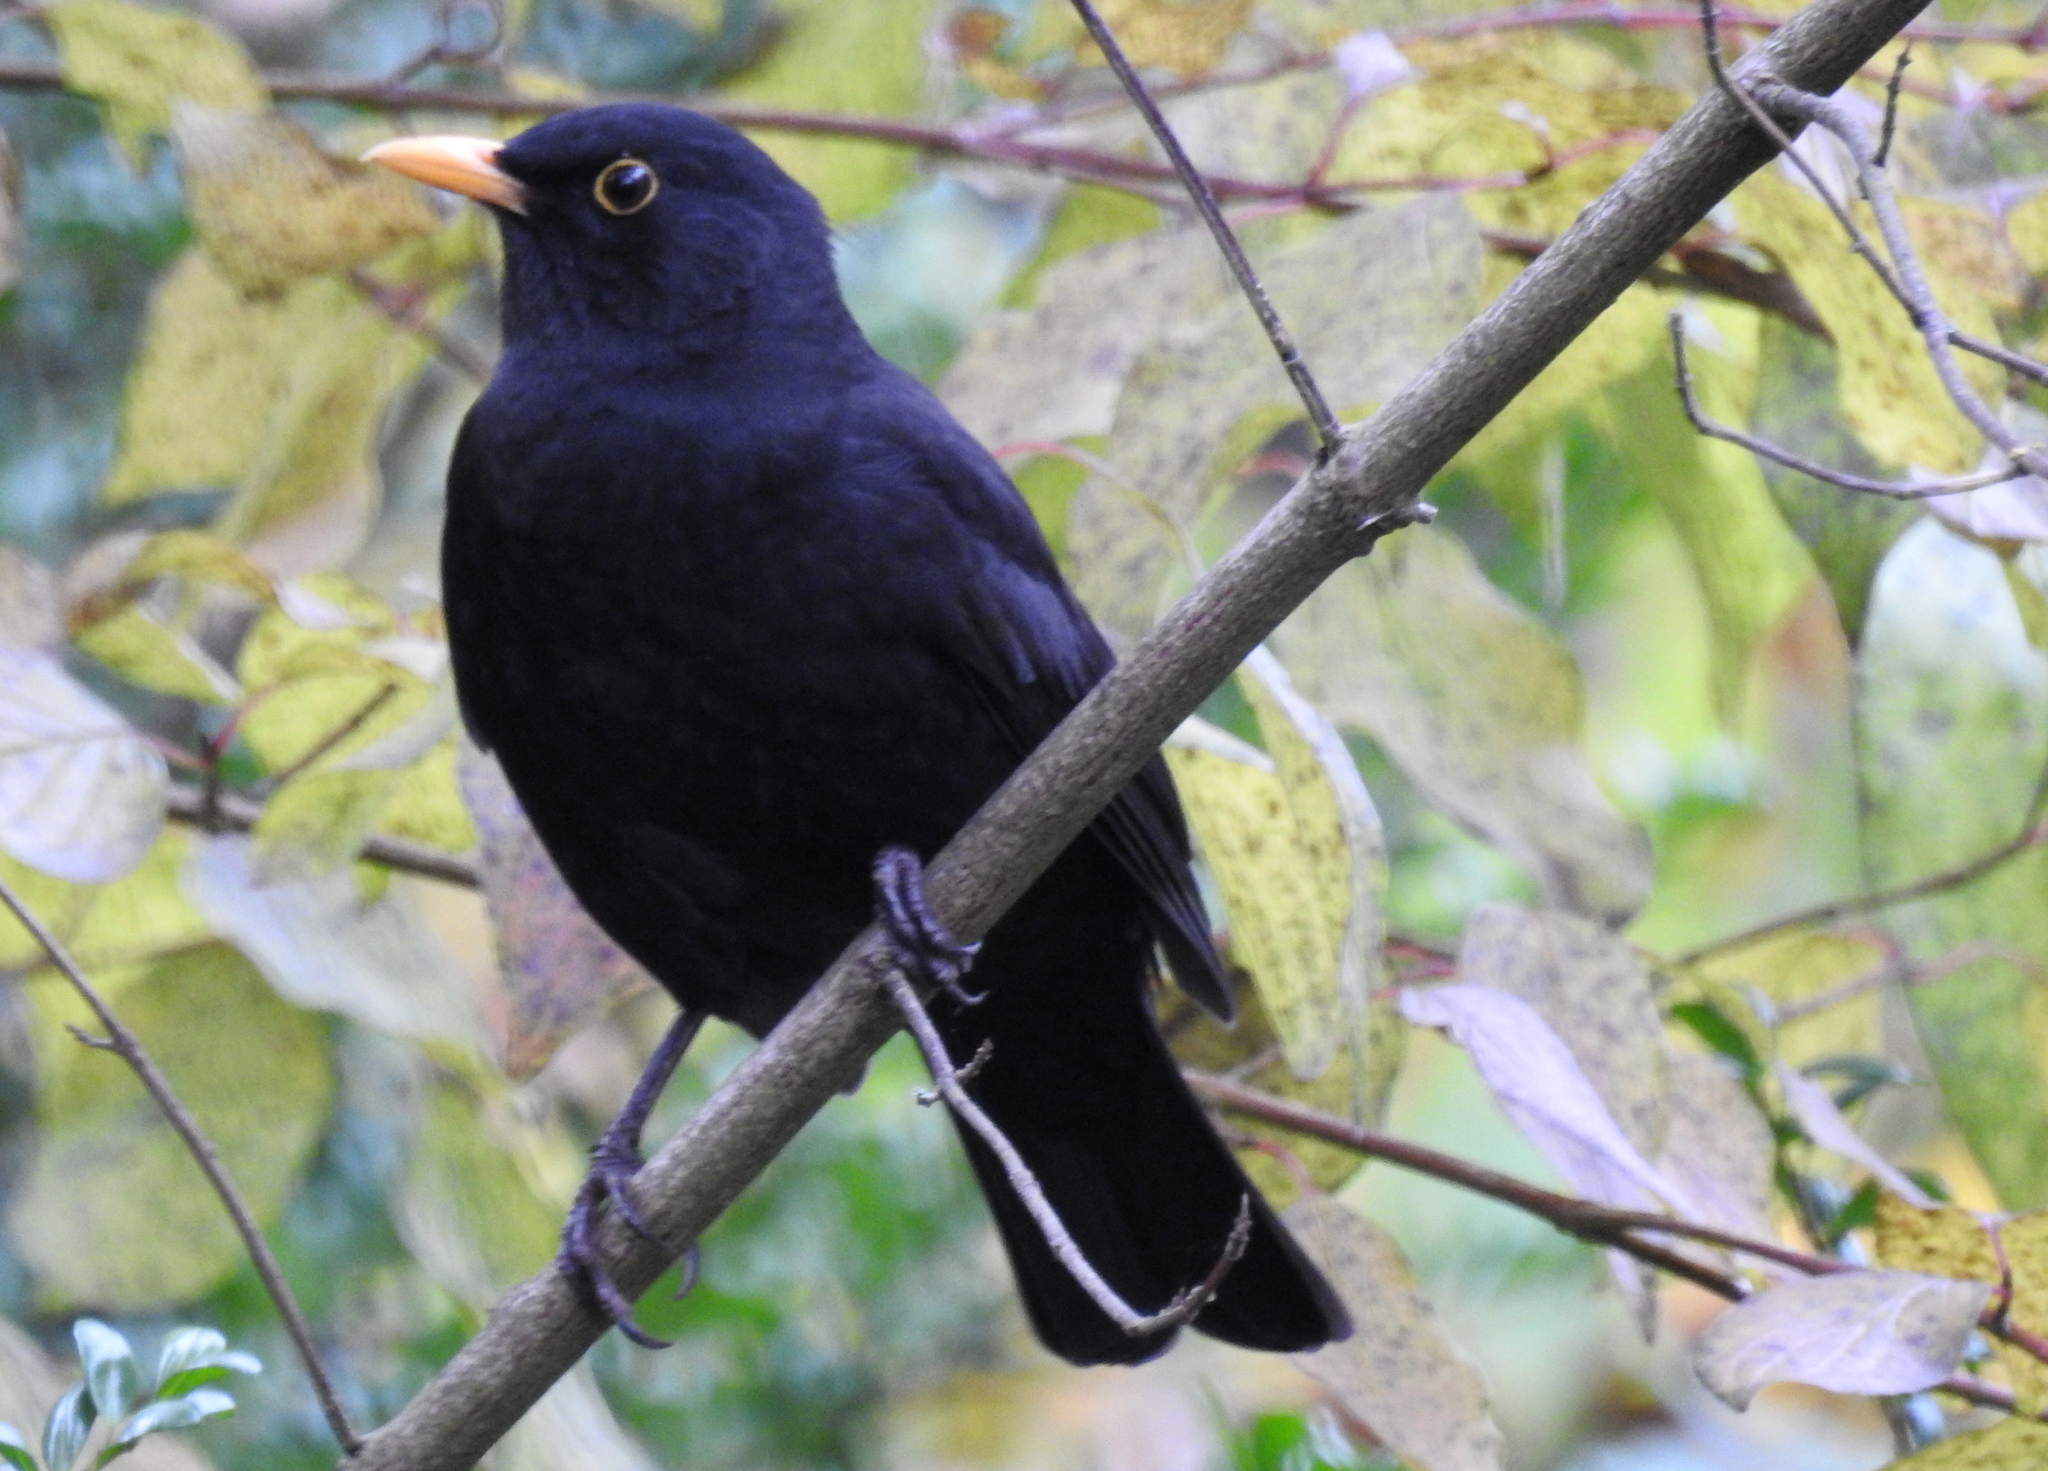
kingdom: Animalia
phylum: Chordata
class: Aves
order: Passeriformes
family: Turdidae
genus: Turdus
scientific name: Turdus merula
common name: Common blackbird
